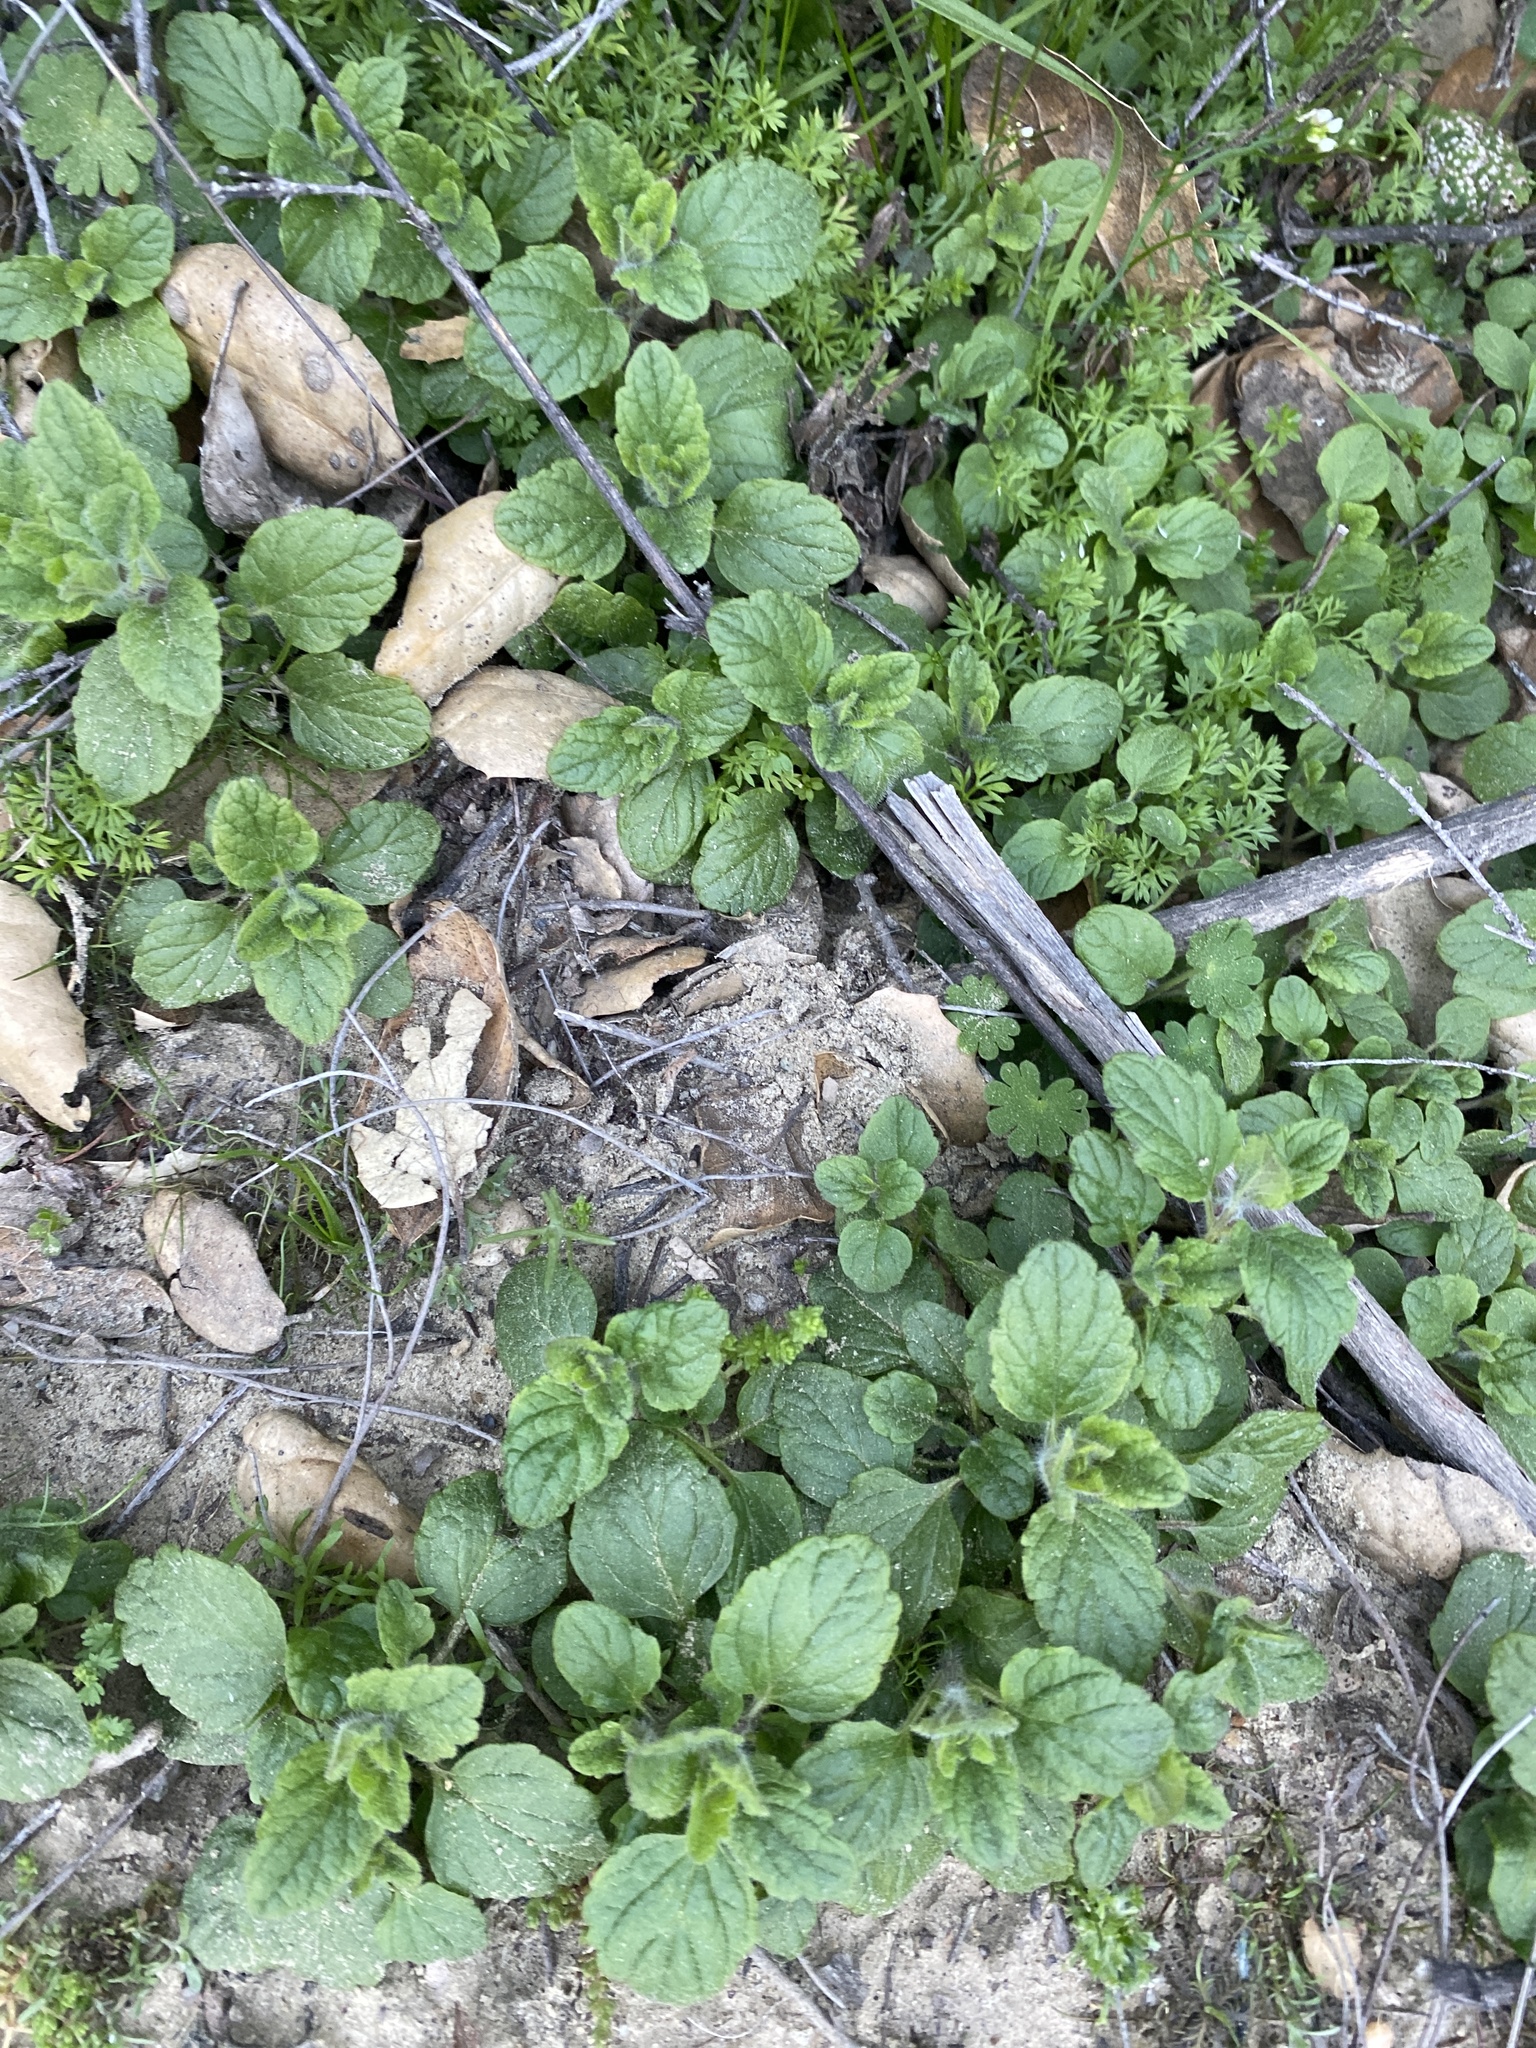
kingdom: Plantae
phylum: Tracheophyta
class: Magnoliopsida
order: Lamiales
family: Lamiaceae
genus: Micromeria
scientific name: Micromeria douglasii
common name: Yerba buena
